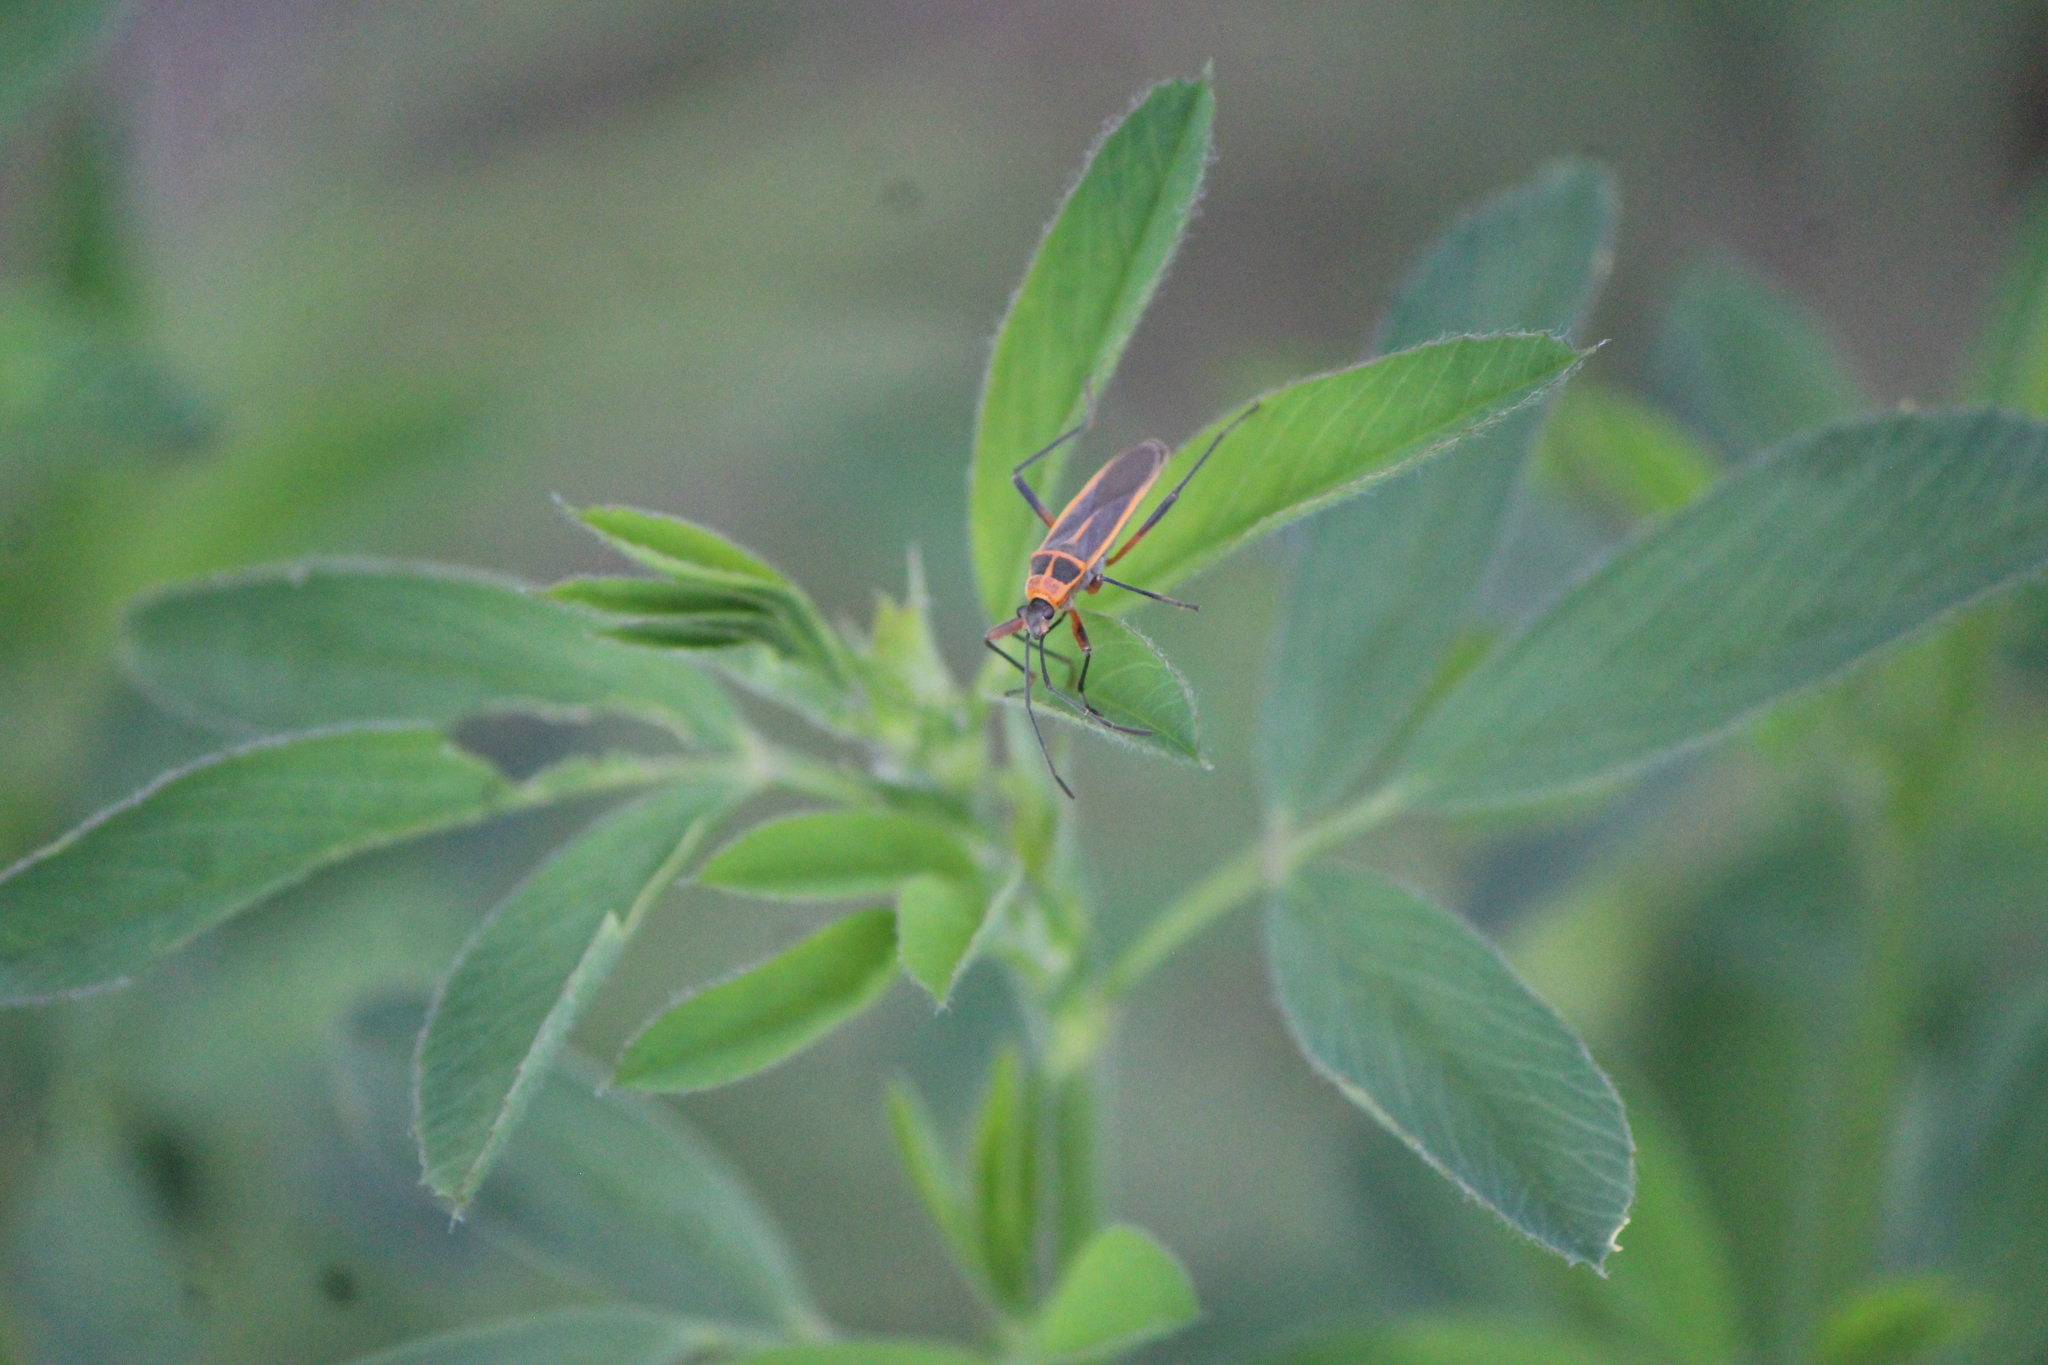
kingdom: Animalia
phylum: Arthropoda
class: Insecta
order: Hemiptera
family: Largidae
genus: Stenomacra
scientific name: Stenomacra marginella
